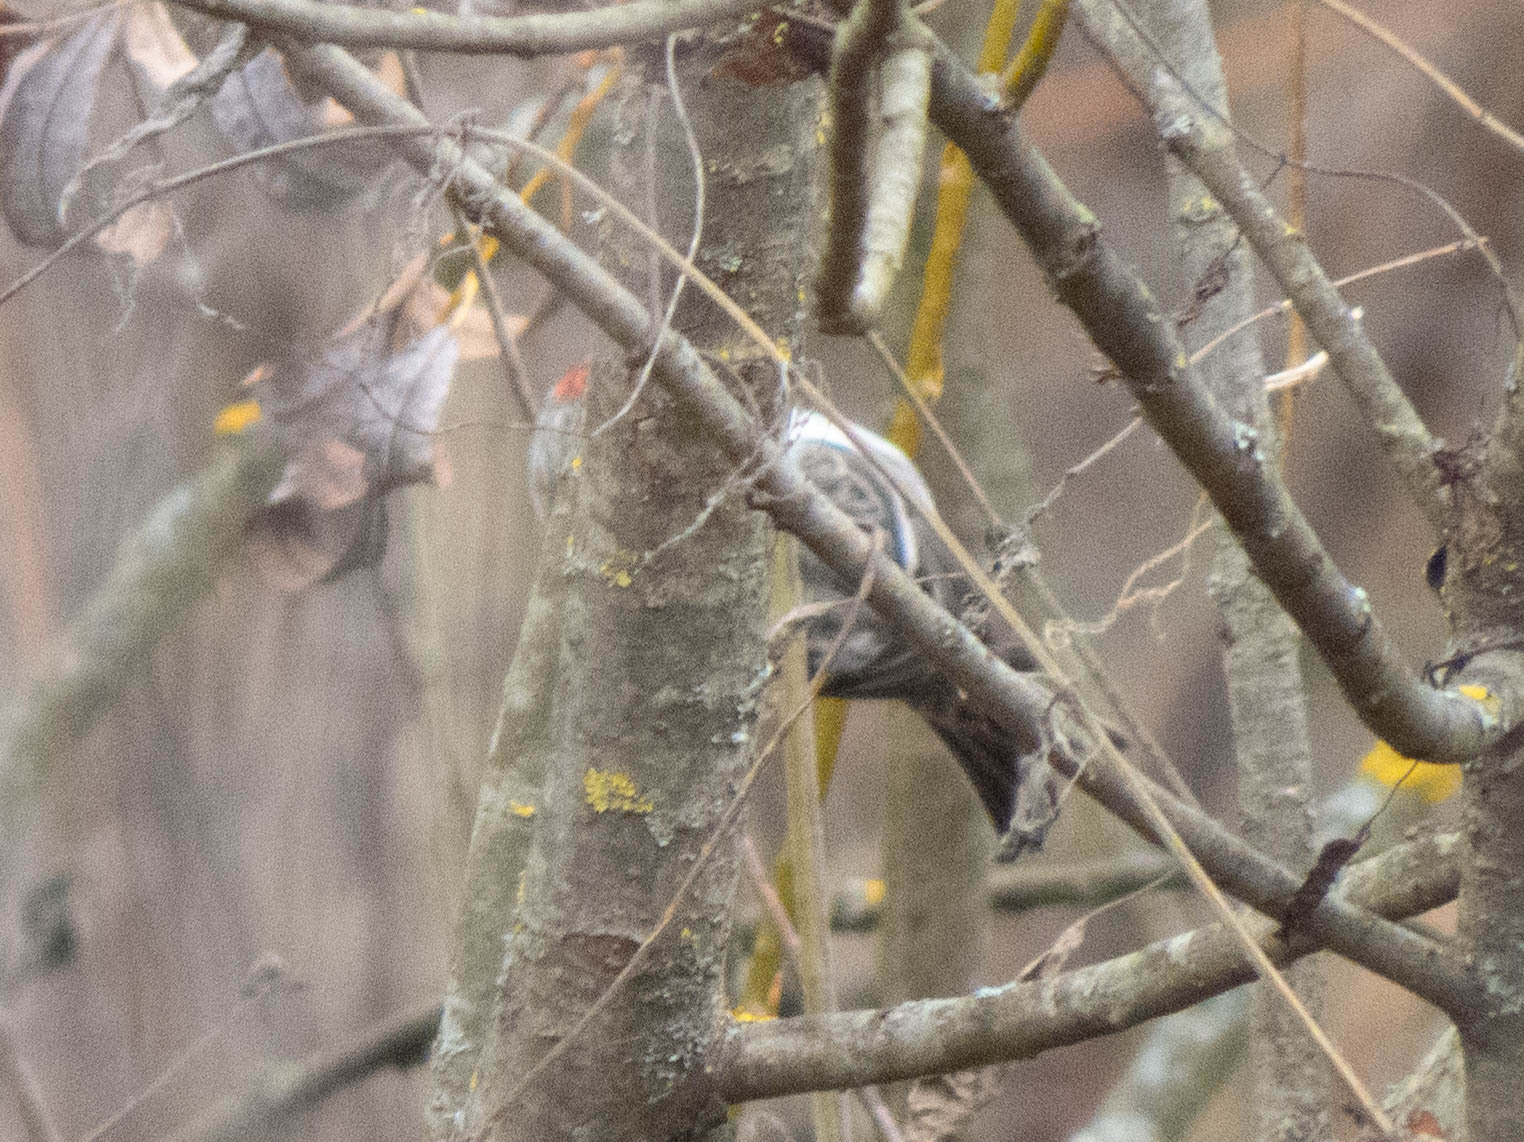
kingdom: Animalia
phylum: Chordata
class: Aves
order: Passeriformes
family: Fringillidae
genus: Acanthis
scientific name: Acanthis flammea
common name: Common redpoll
